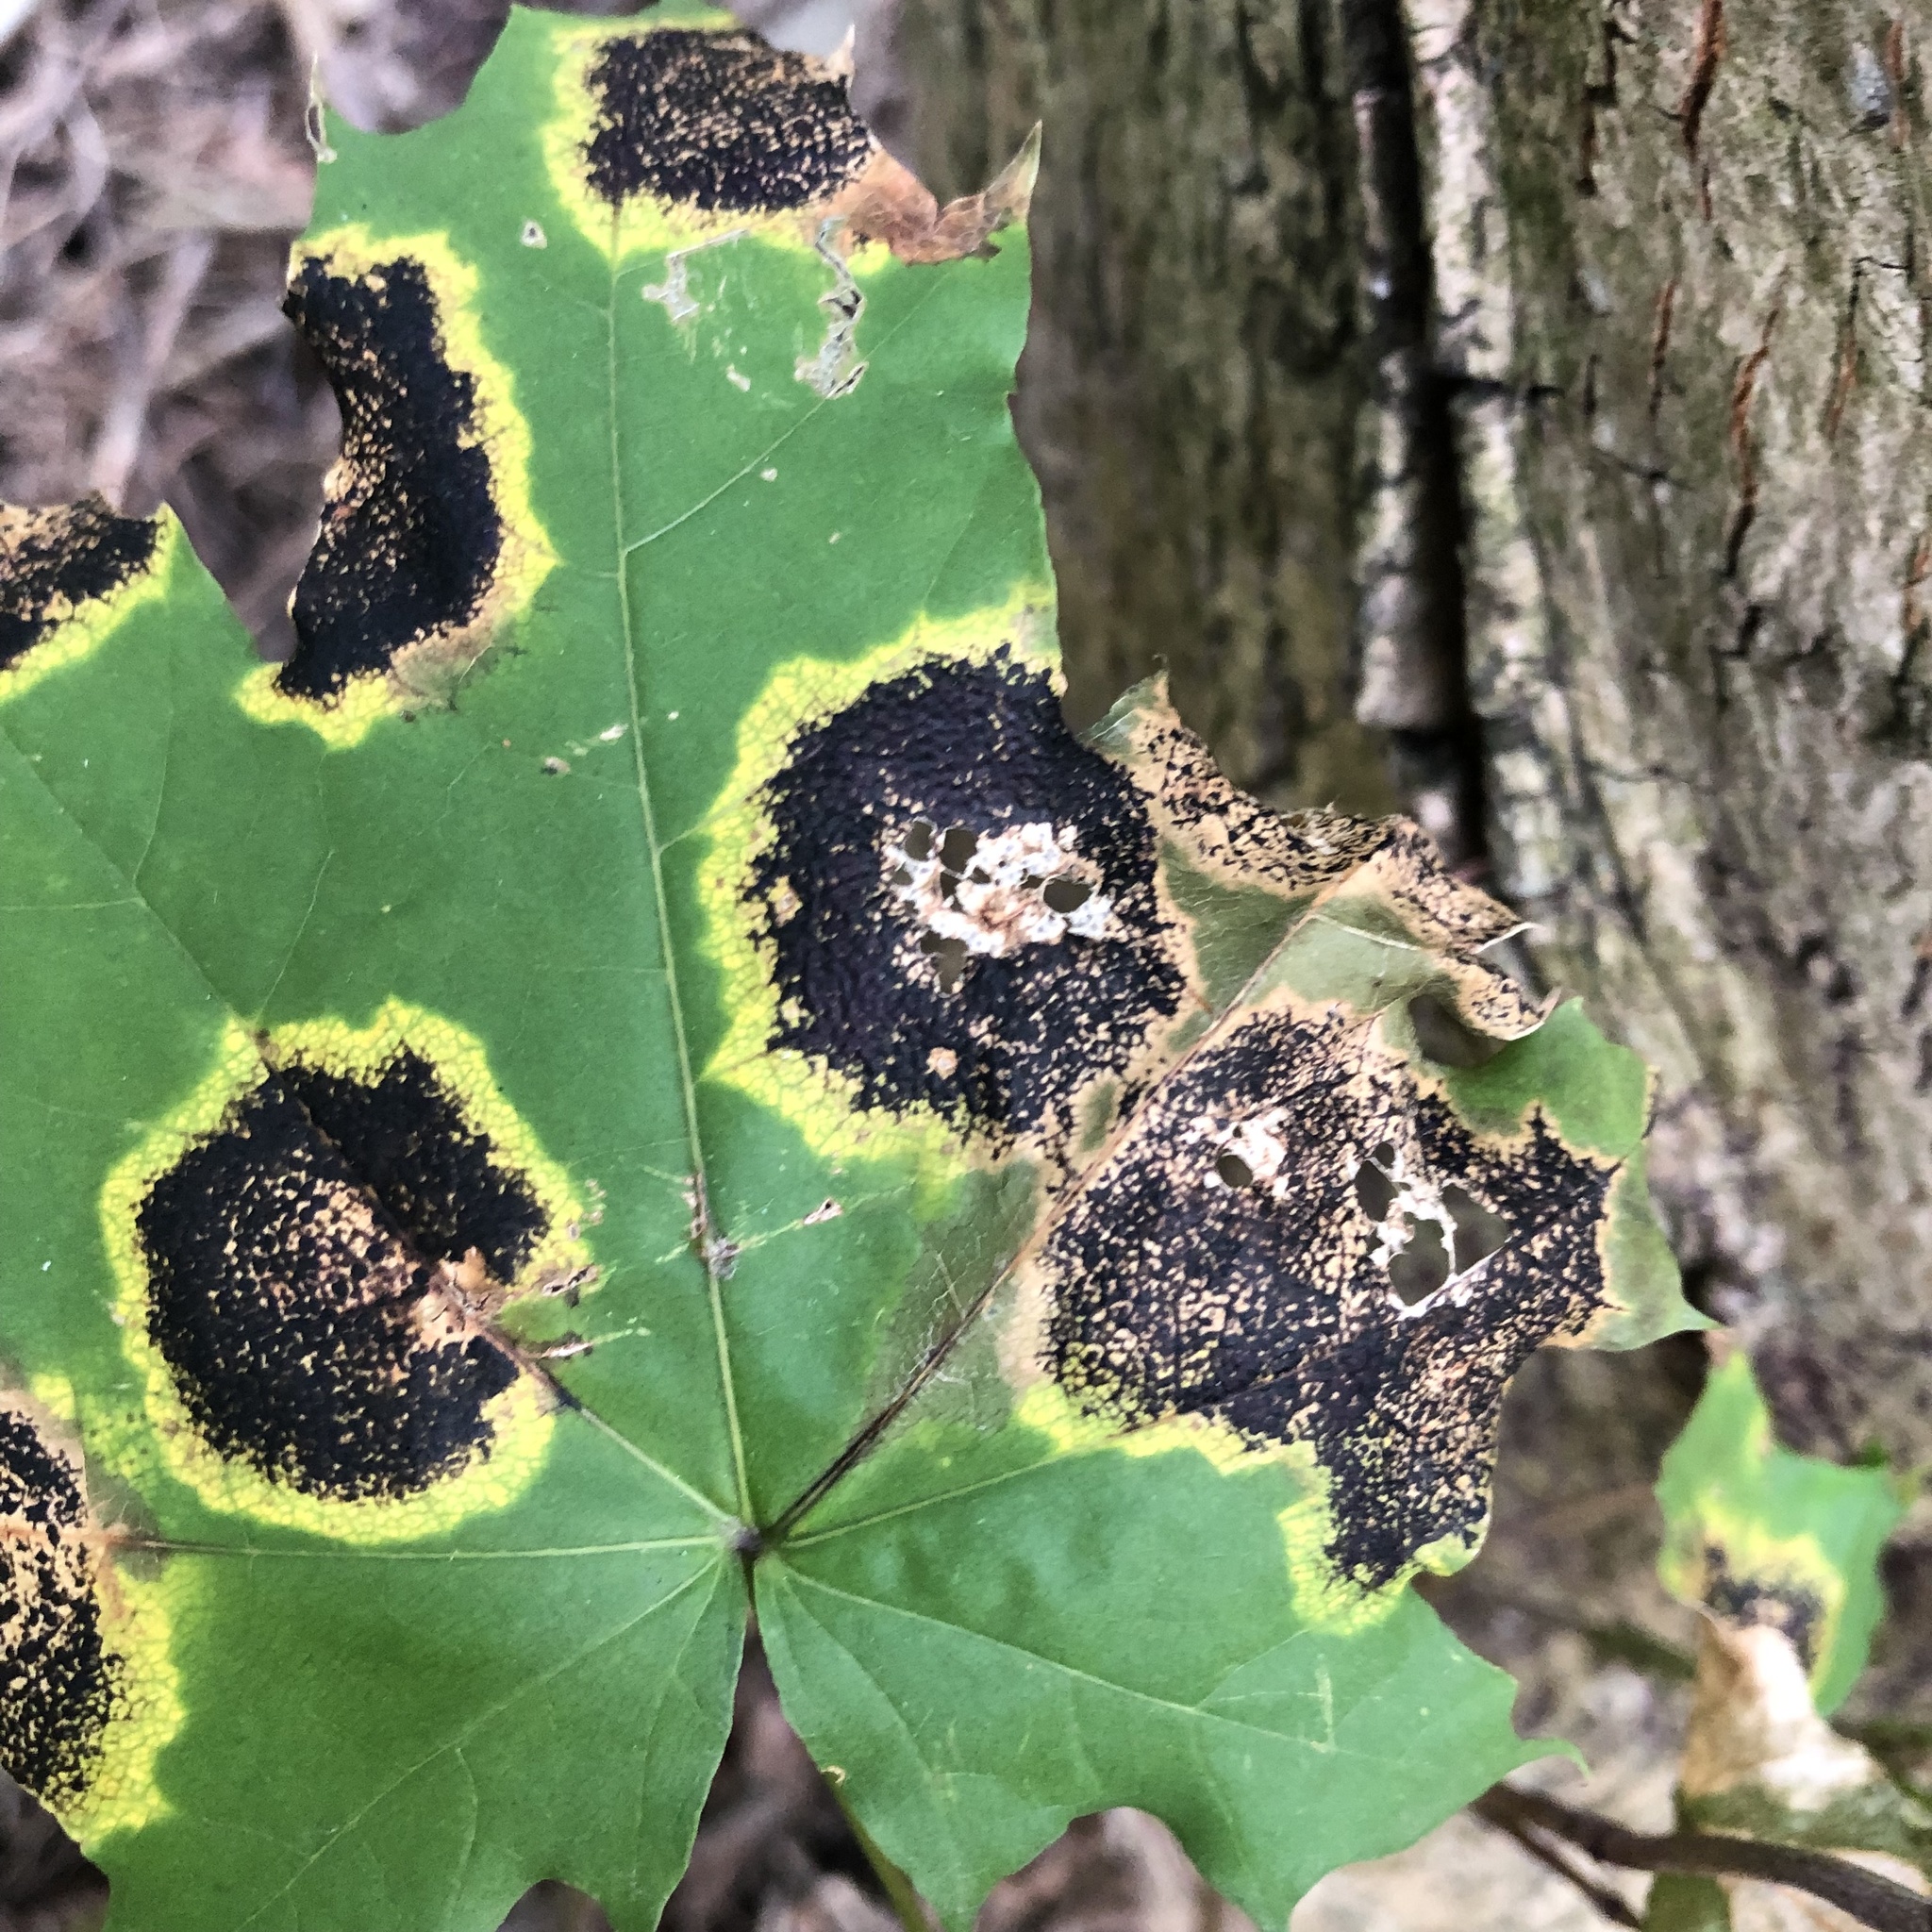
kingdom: Fungi
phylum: Ascomycota
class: Leotiomycetes
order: Rhytismatales
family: Rhytismataceae
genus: Rhytisma
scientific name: Rhytisma acerinum
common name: European tar spot
